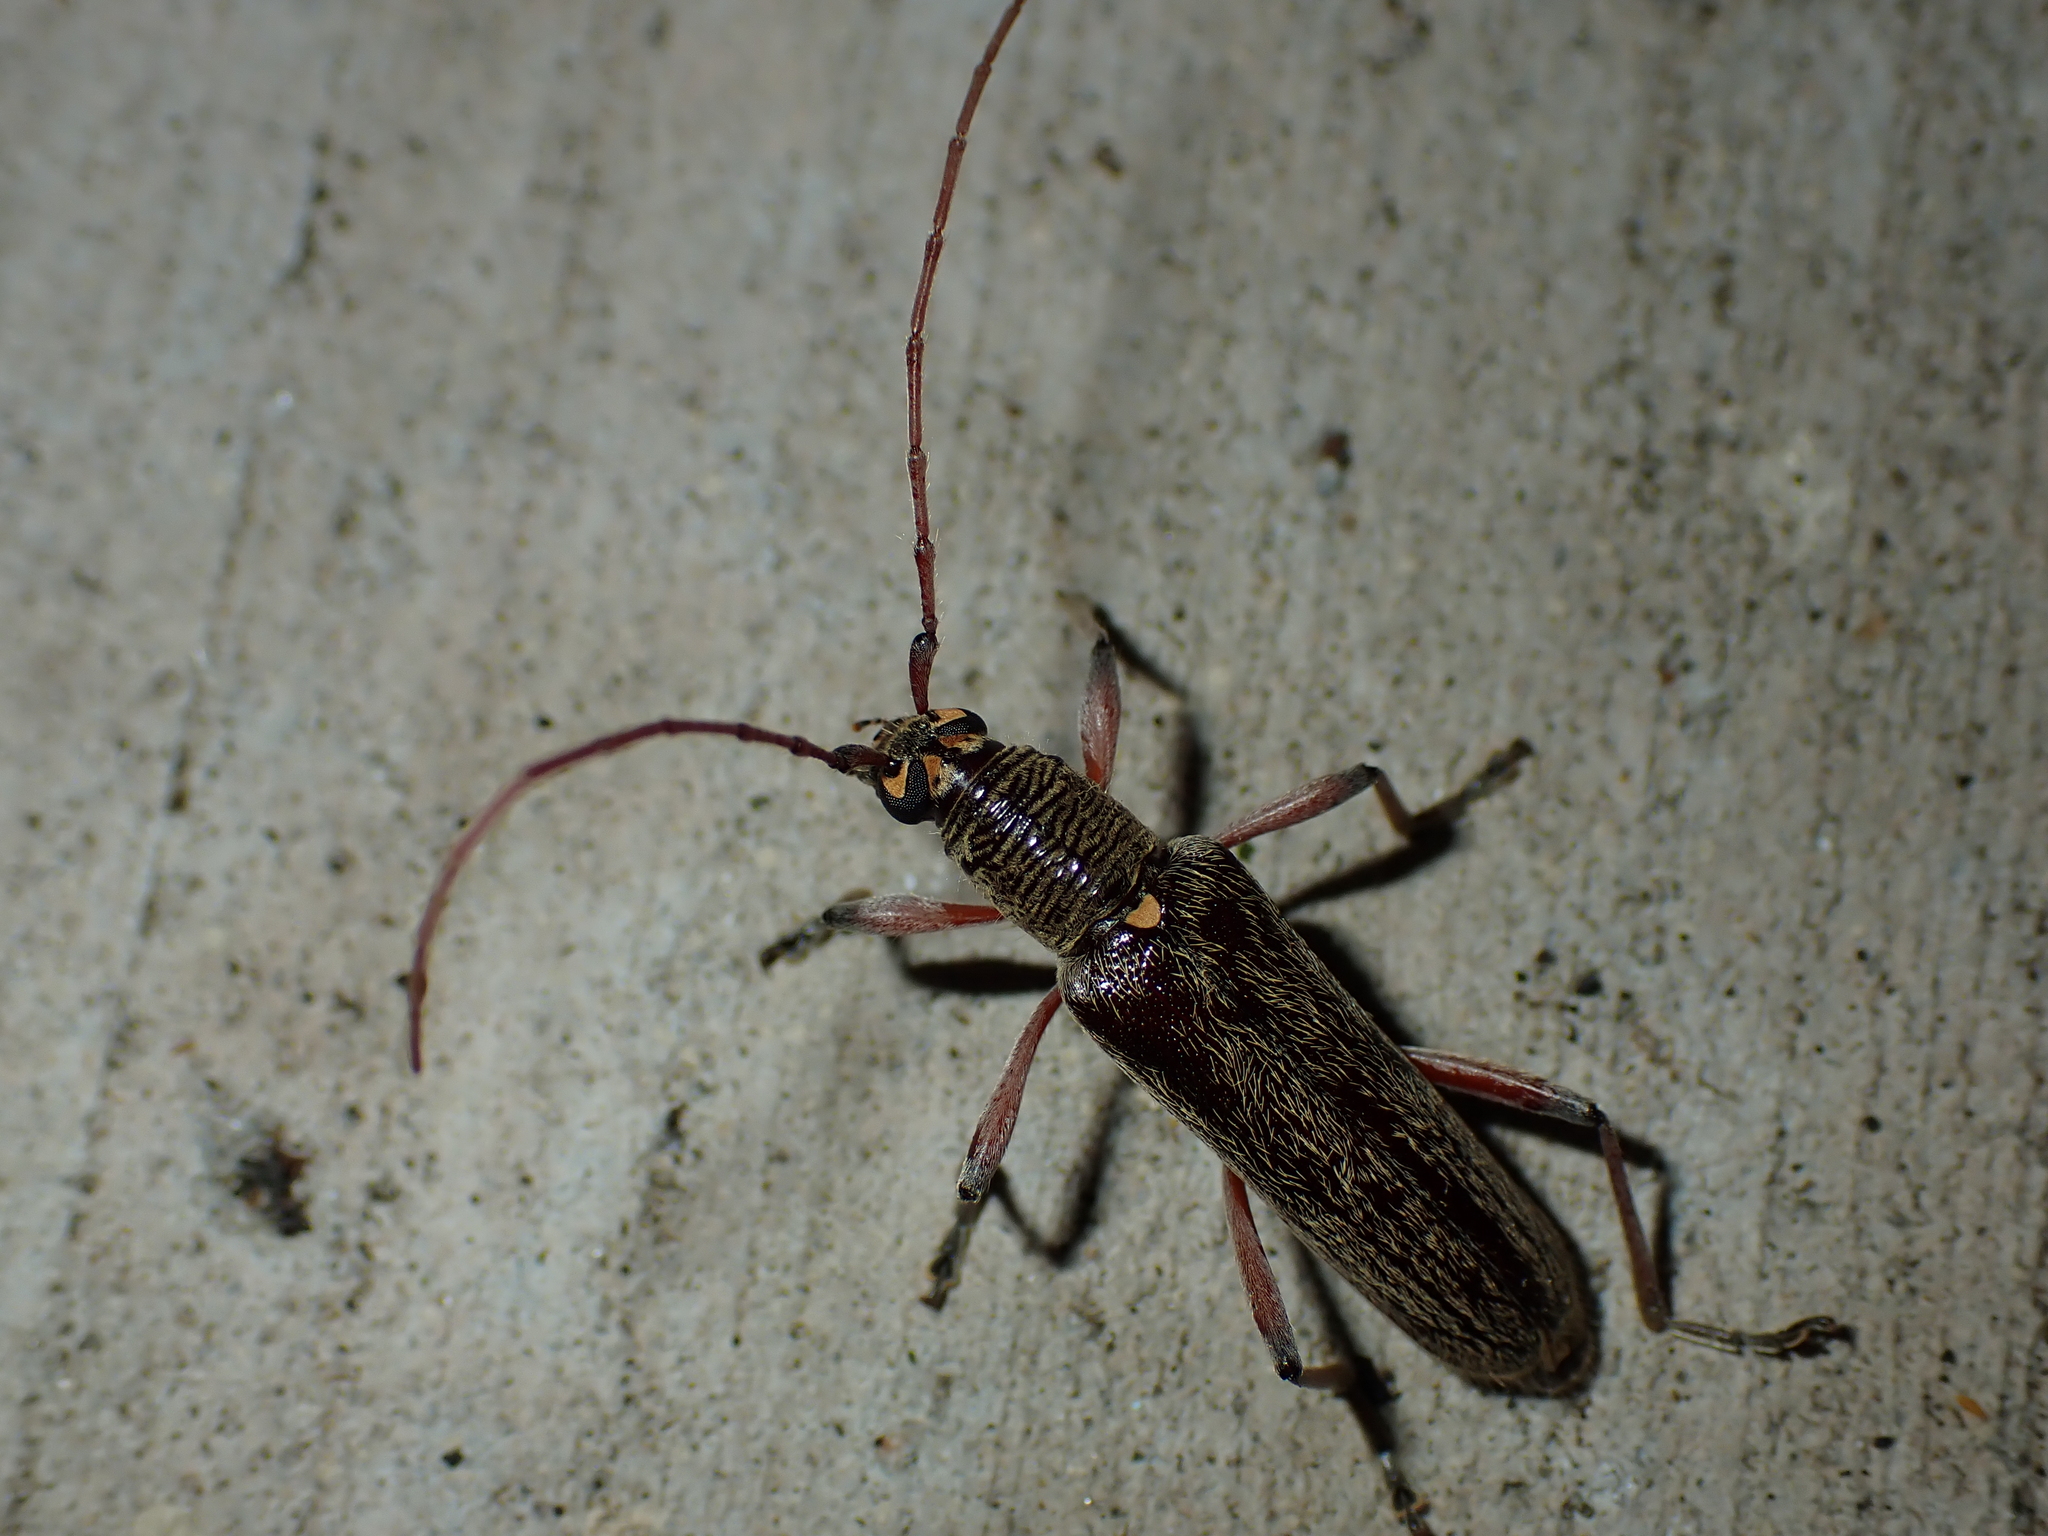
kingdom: Animalia
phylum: Arthropoda
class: Insecta
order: Coleoptera
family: Cerambycidae
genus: Oemona
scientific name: Oemona hirta
